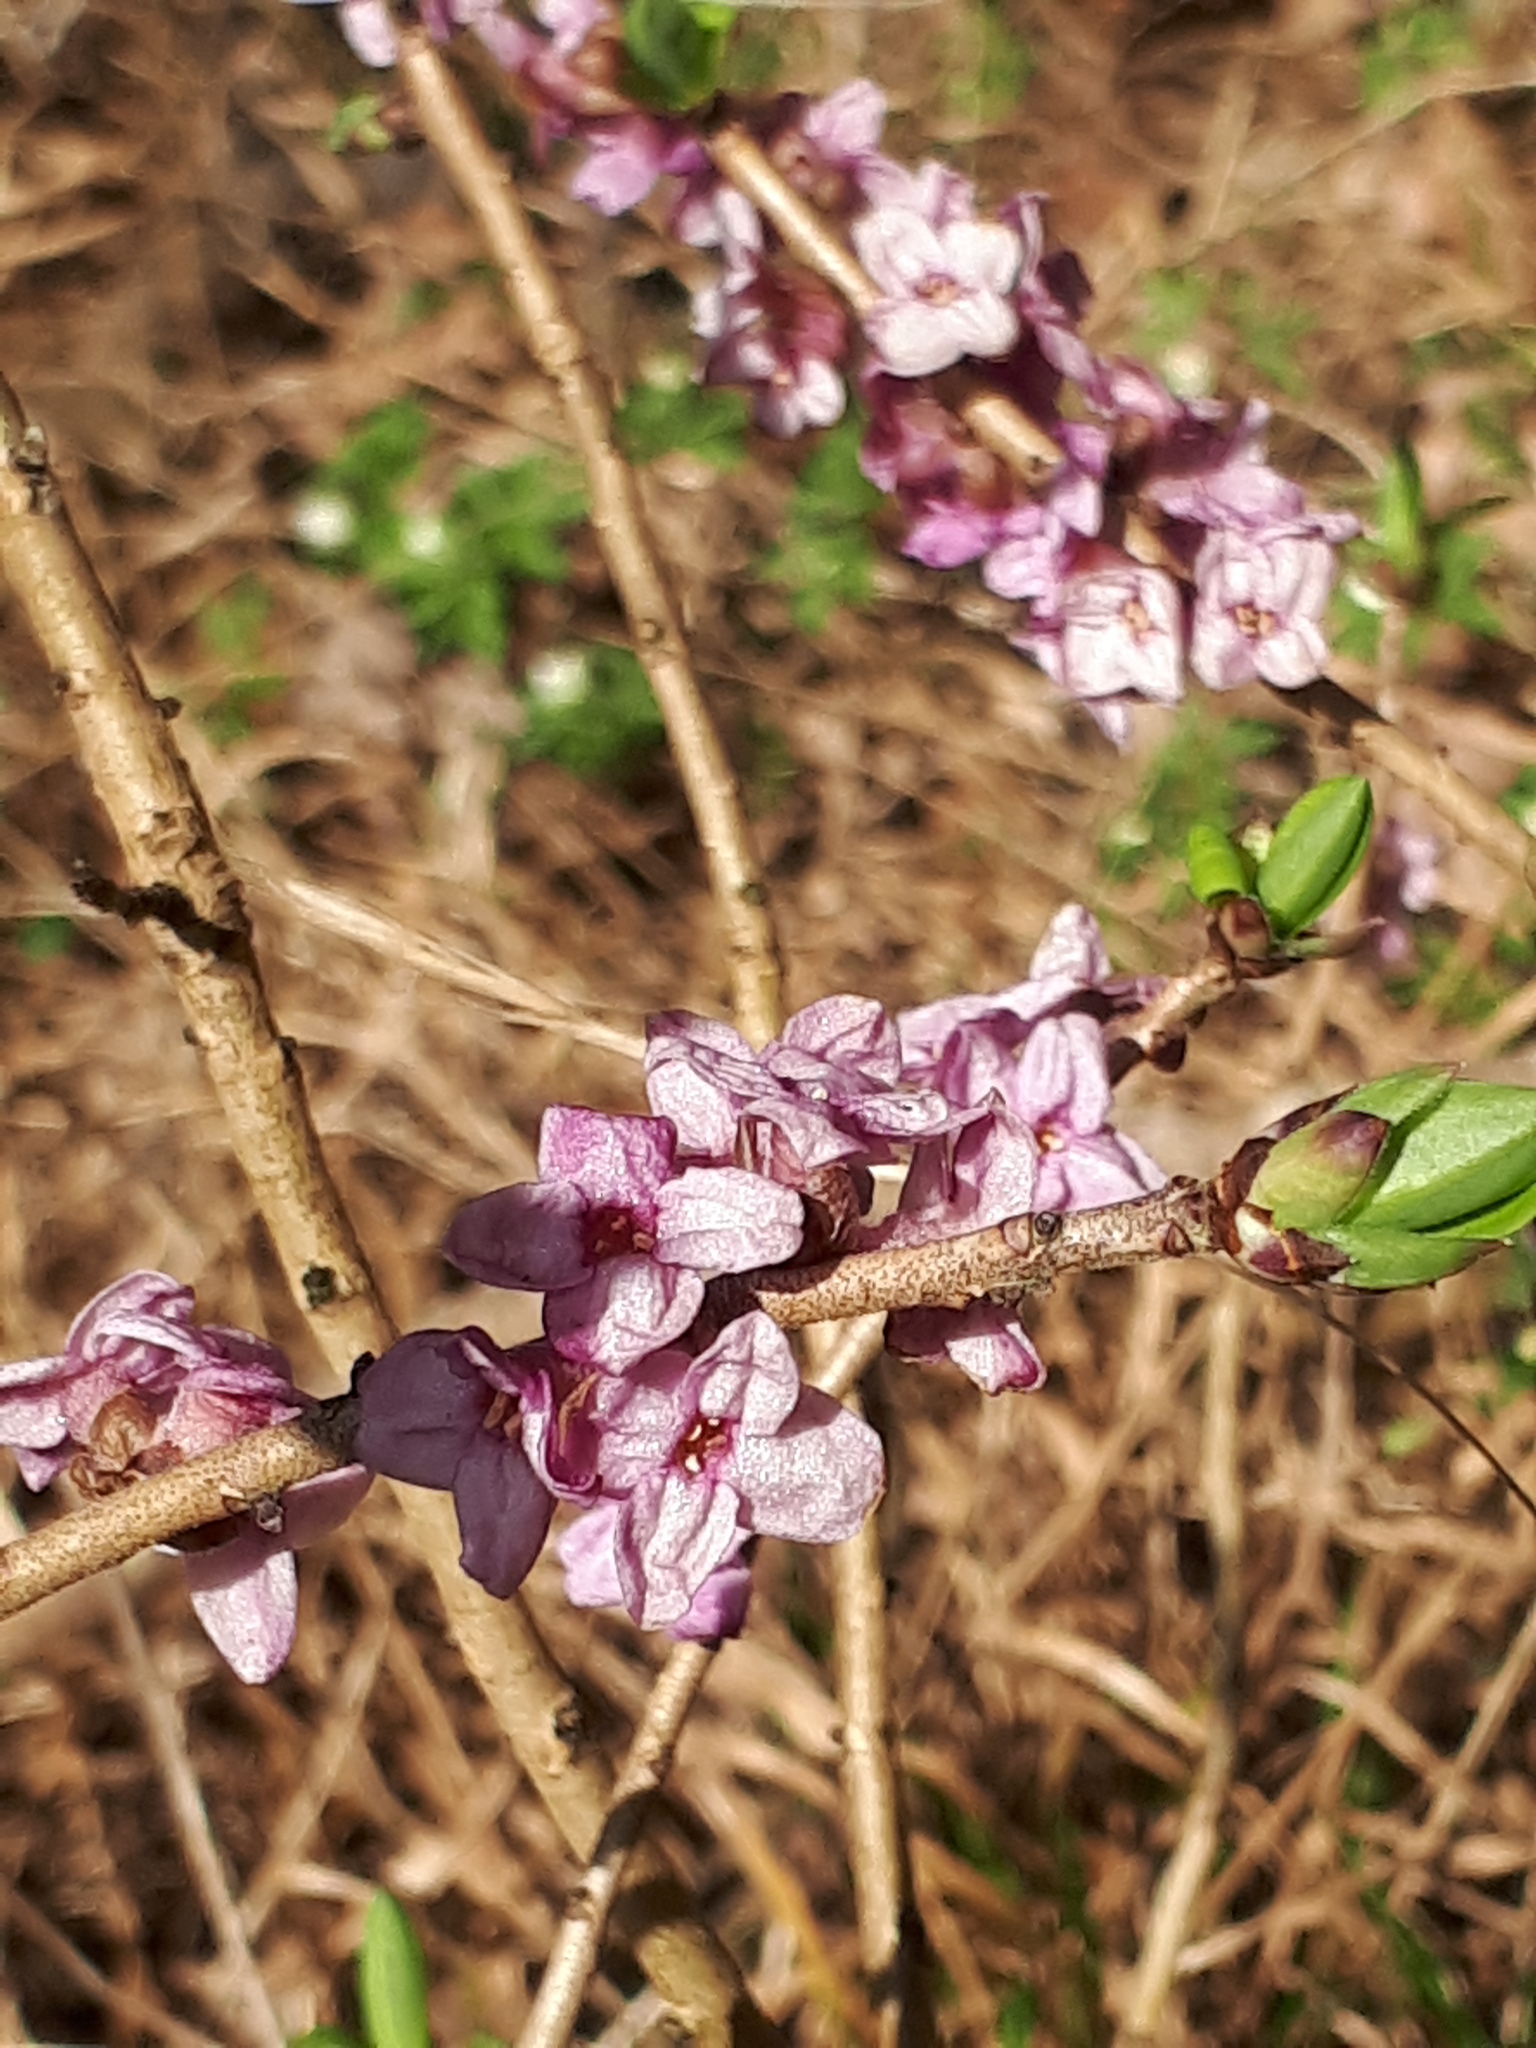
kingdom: Plantae
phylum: Tracheophyta
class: Magnoliopsida
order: Malvales
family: Thymelaeaceae
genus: Daphne
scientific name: Daphne mezereum
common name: Mezereon
